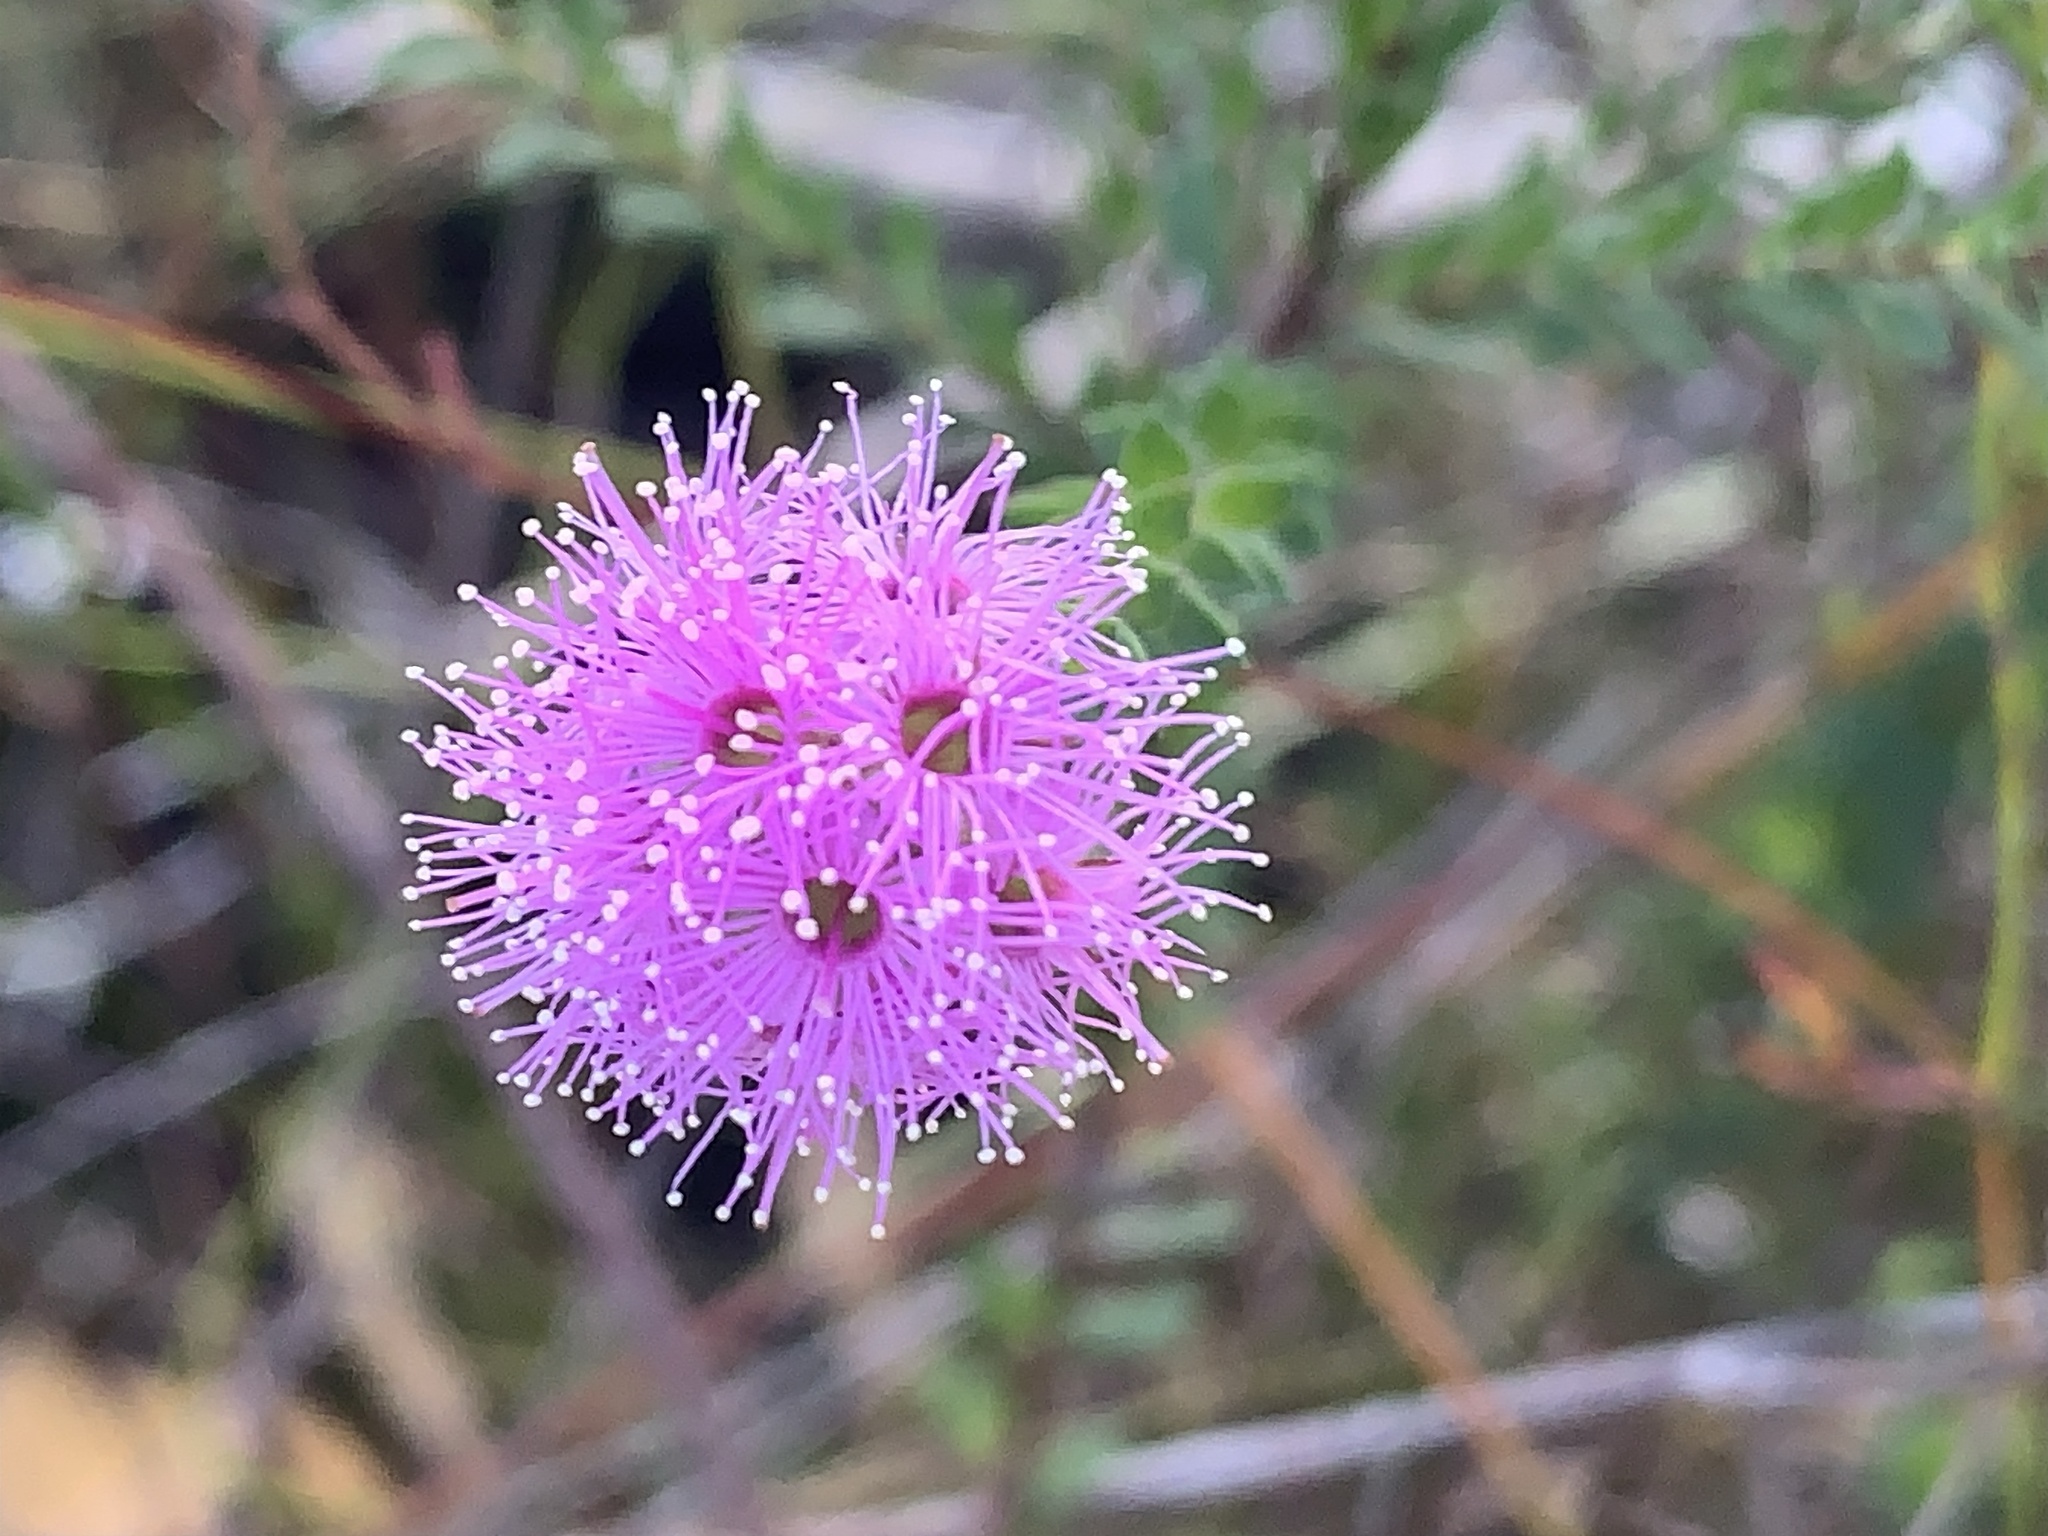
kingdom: Plantae
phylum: Tracheophyta
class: Magnoliopsida
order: Myrtales
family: Myrtaceae
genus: Kunzea
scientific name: Kunzea capitata
